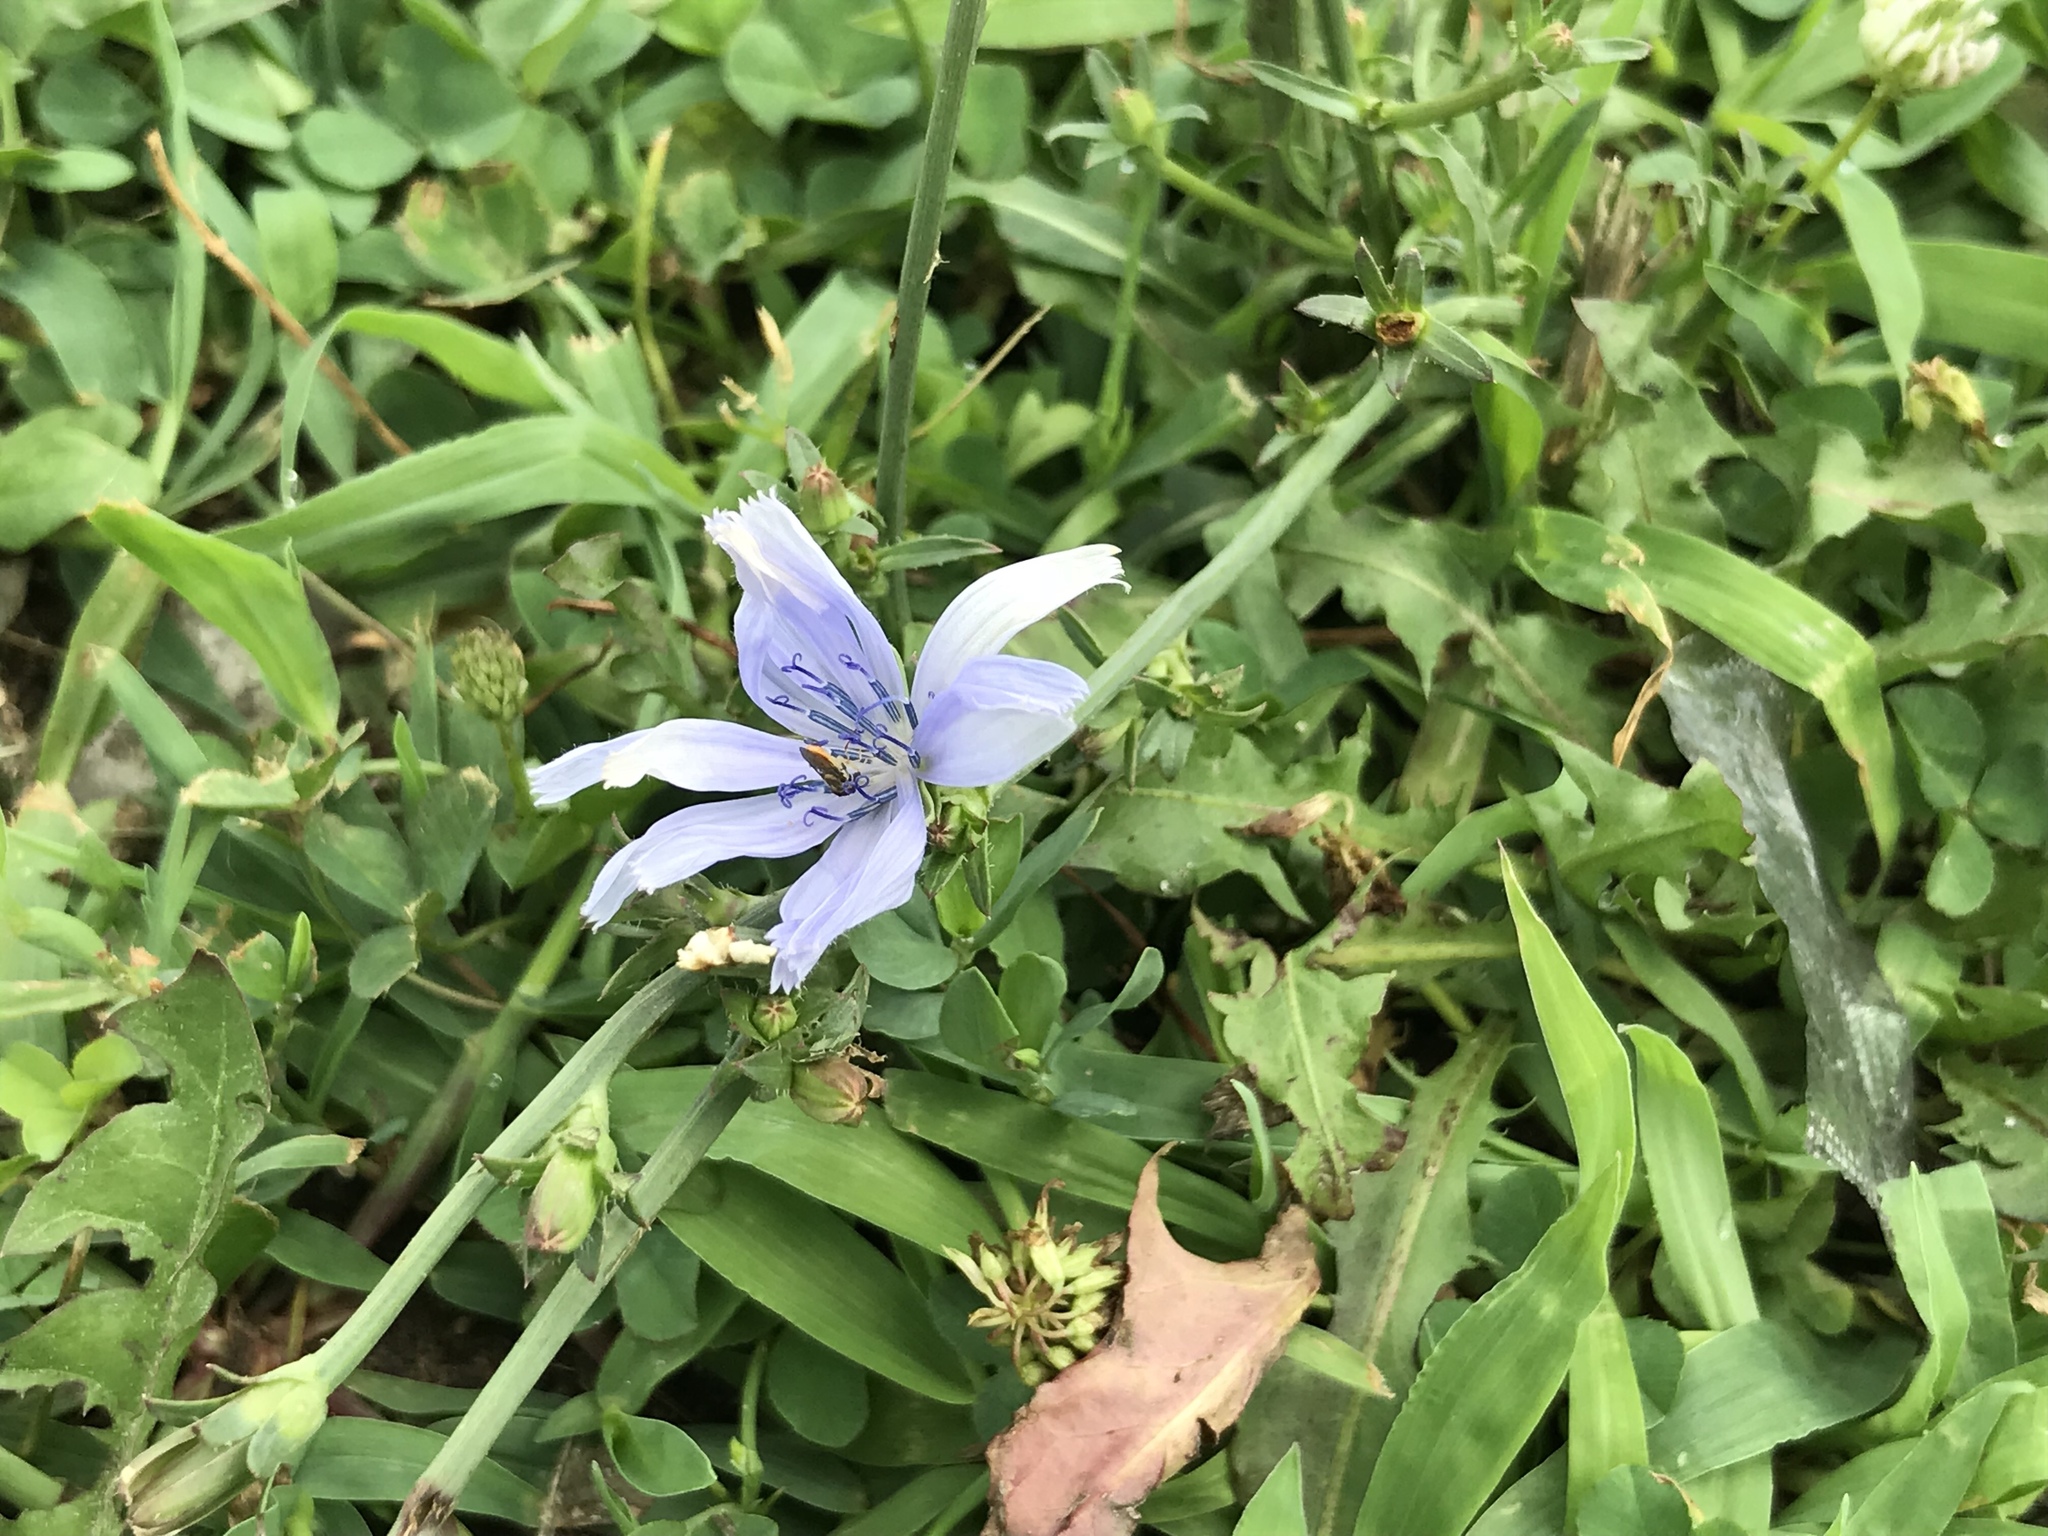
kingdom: Plantae
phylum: Tracheophyta
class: Magnoliopsida
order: Asterales
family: Asteraceae
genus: Cichorium
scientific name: Cichorium intybus
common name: Chicory
